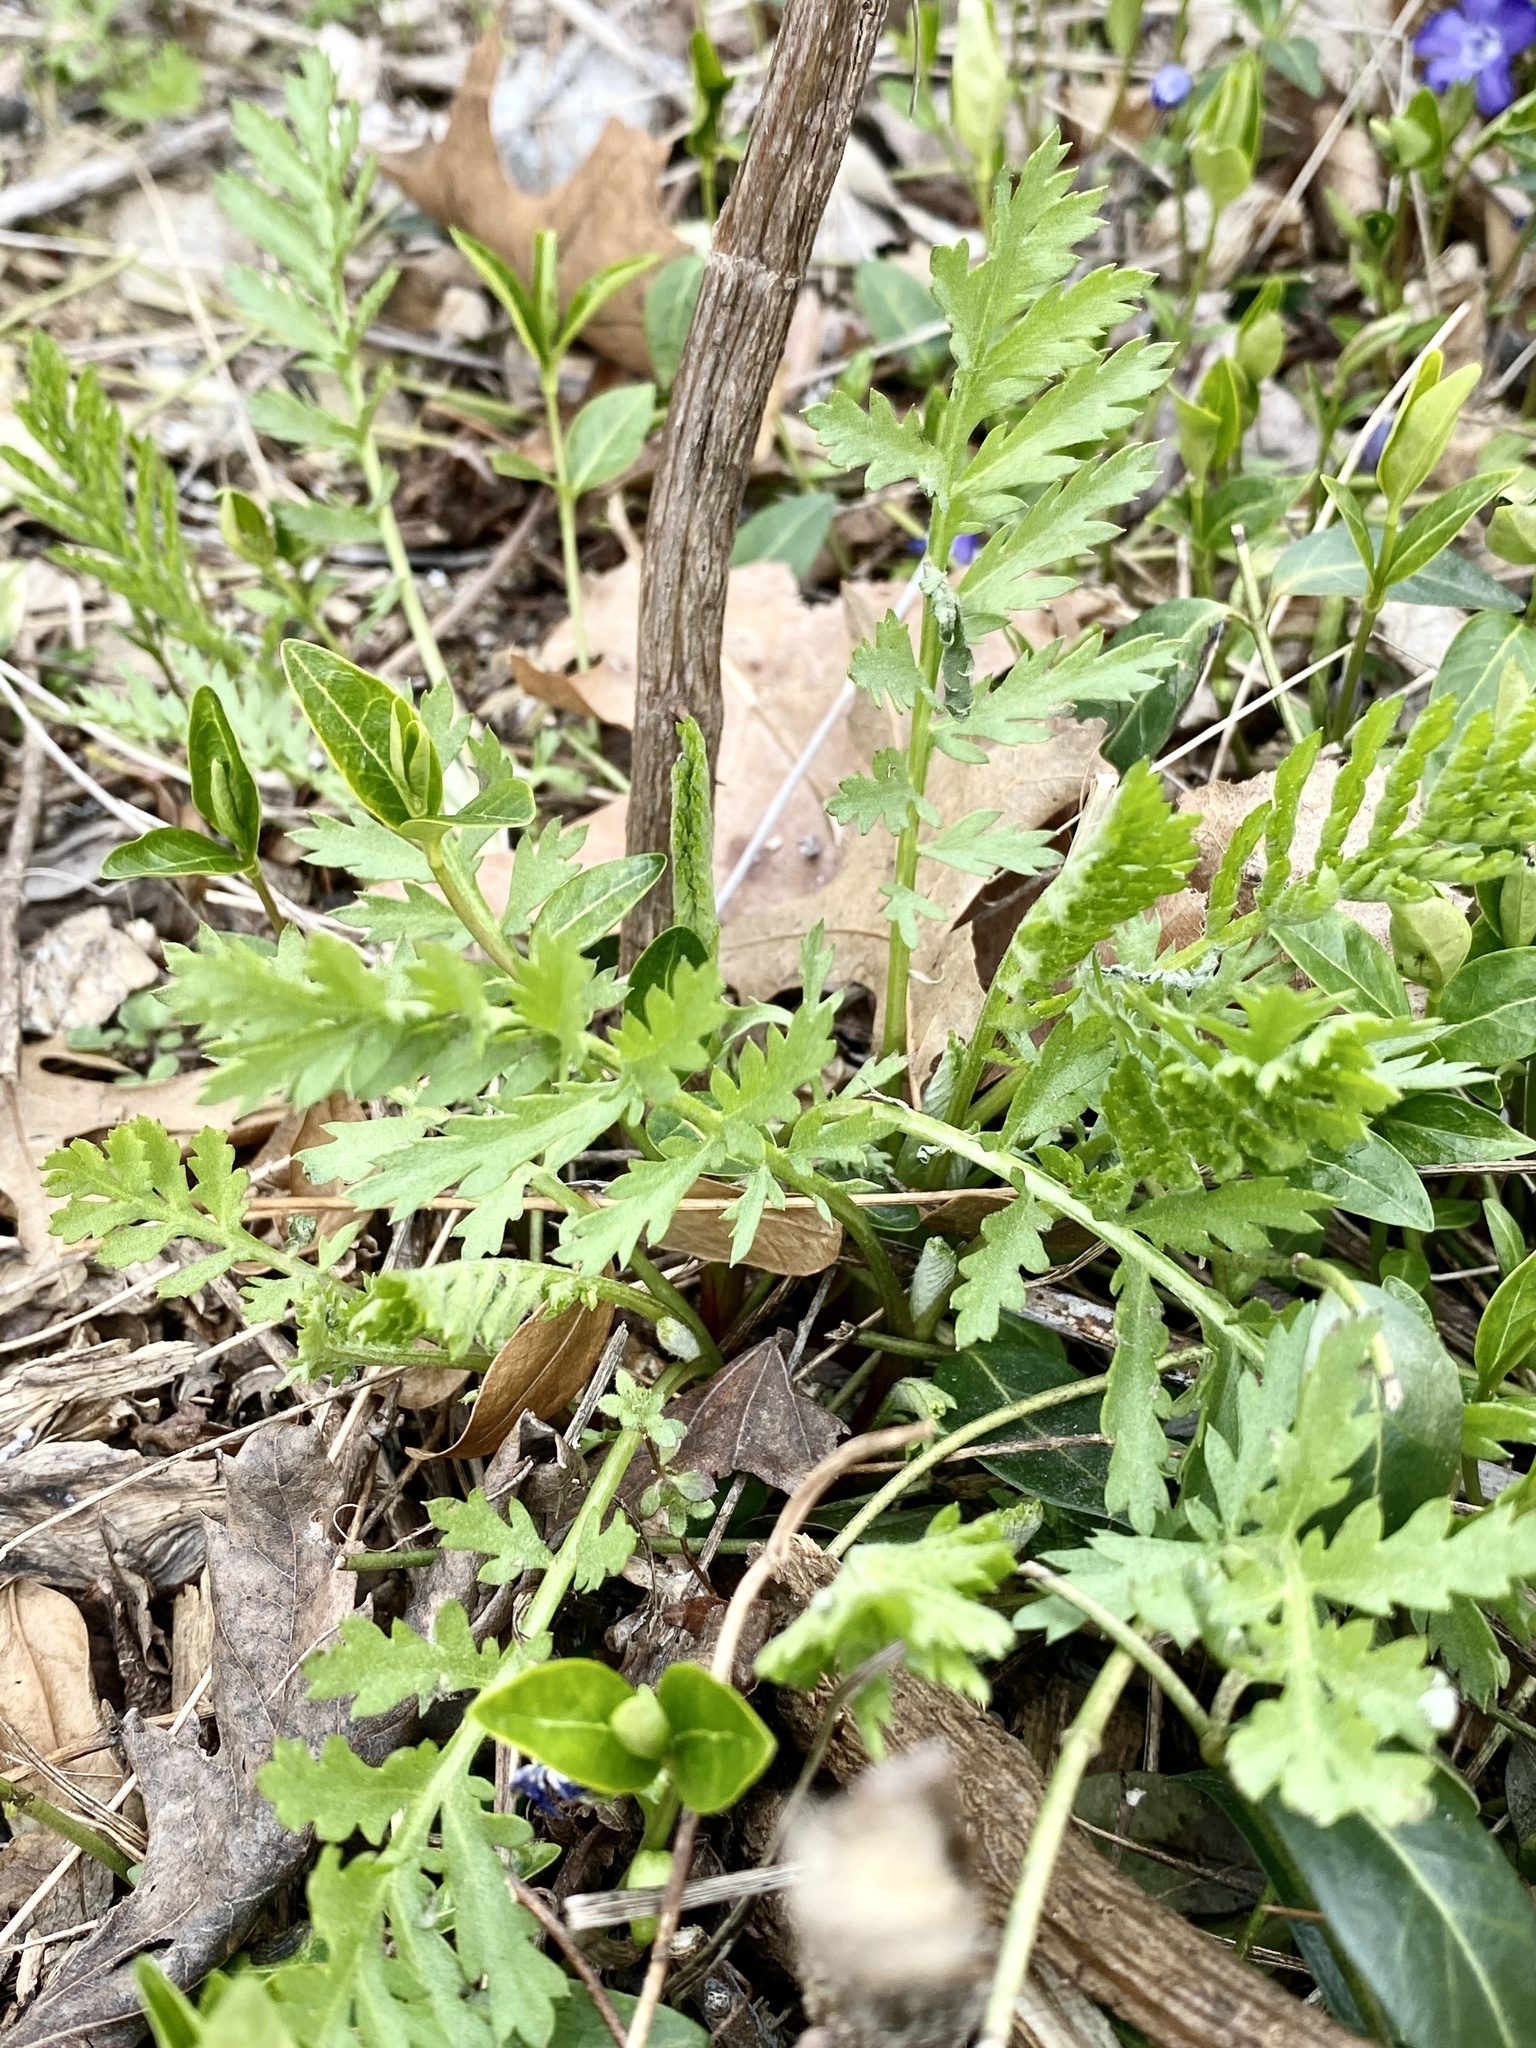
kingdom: Plantae
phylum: Tracheophyta
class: Magnoliopsida
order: Asterales
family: Asteraceae
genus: Tanacetum
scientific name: Tanacetum vulgare
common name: Common tansy
